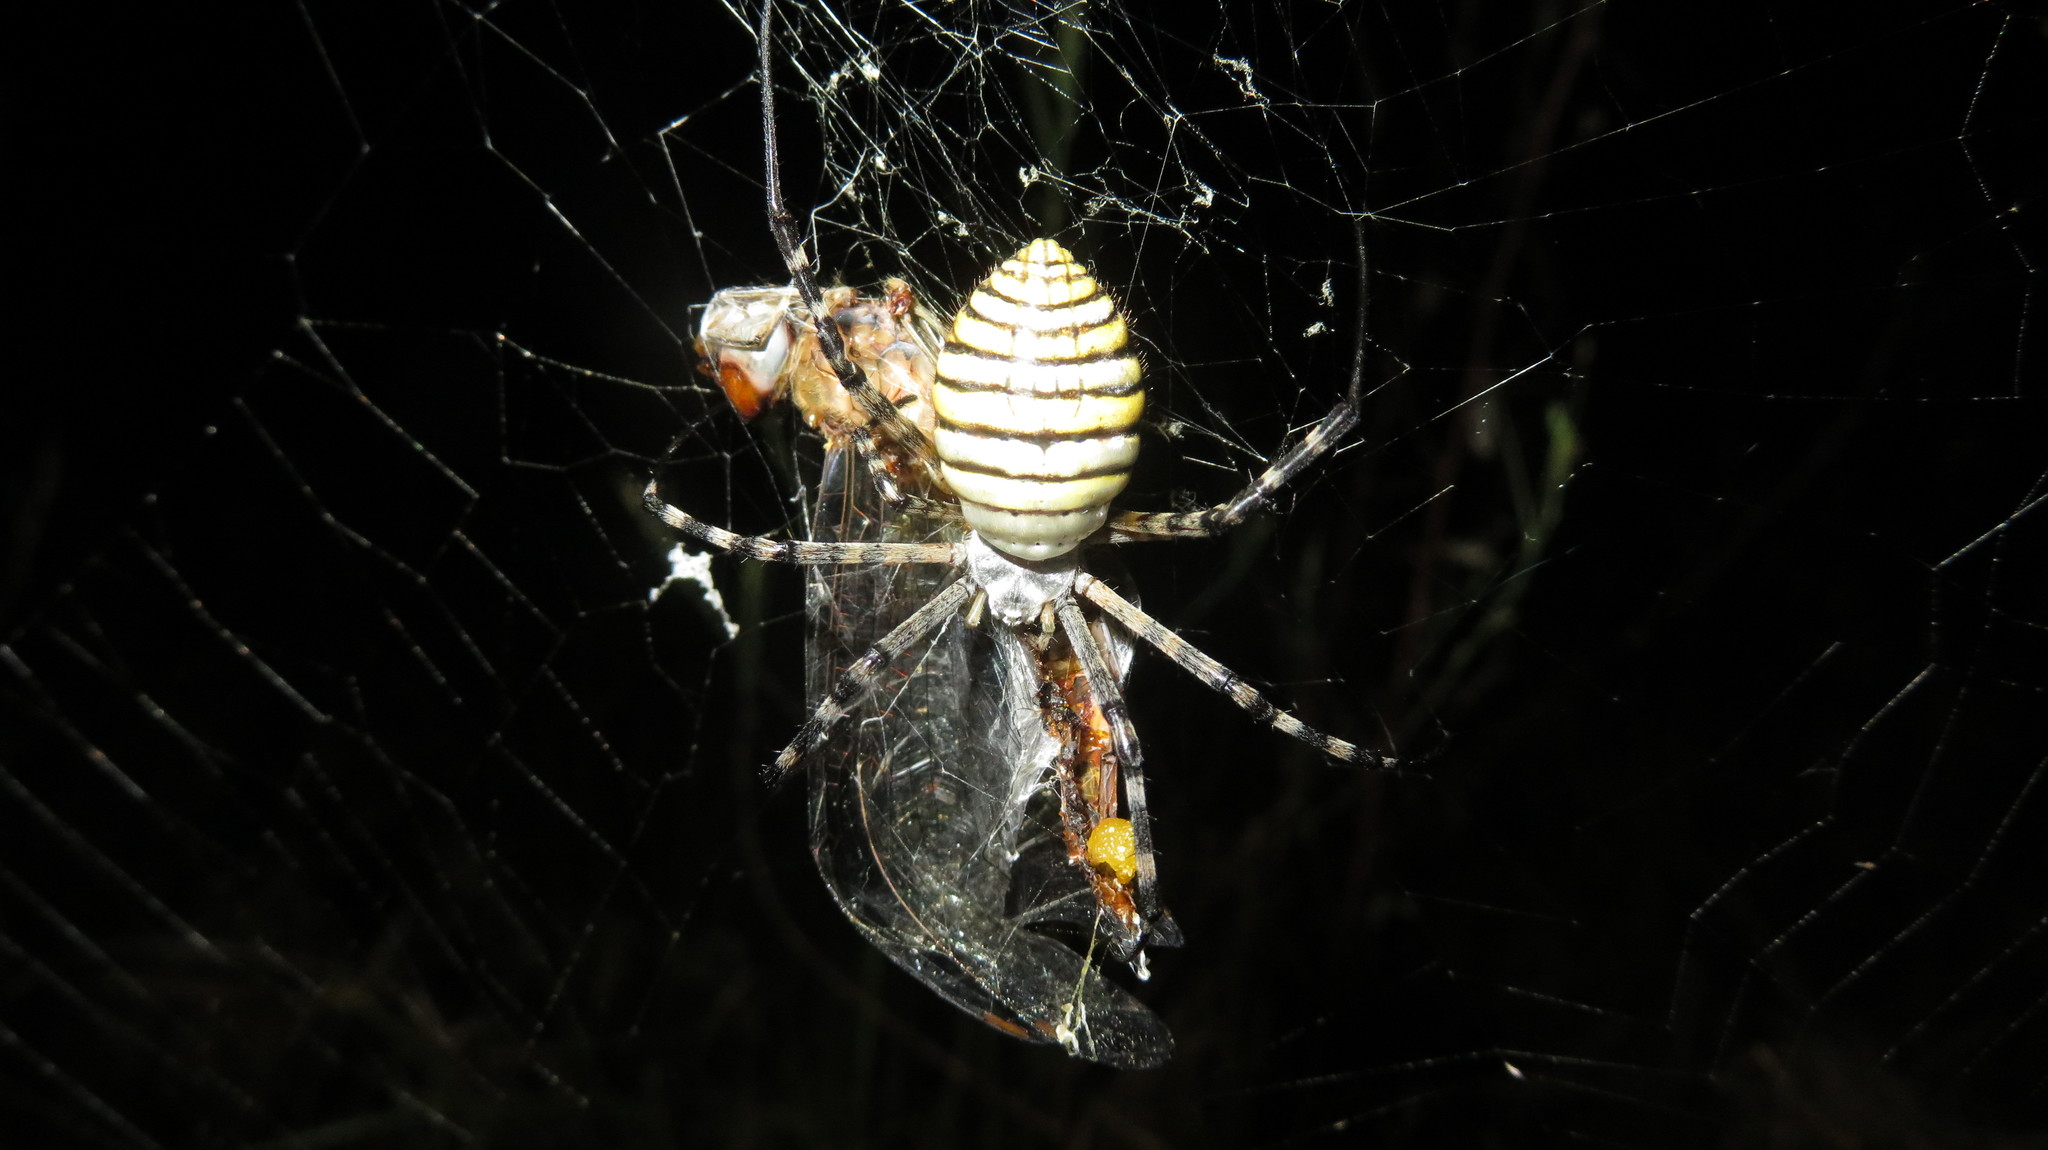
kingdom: Animalia
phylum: Arthropoda
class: Arachnida
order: Araneae
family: Araneidae
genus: Argiope
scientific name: Argiope trifasciata
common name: Banded garden spider
